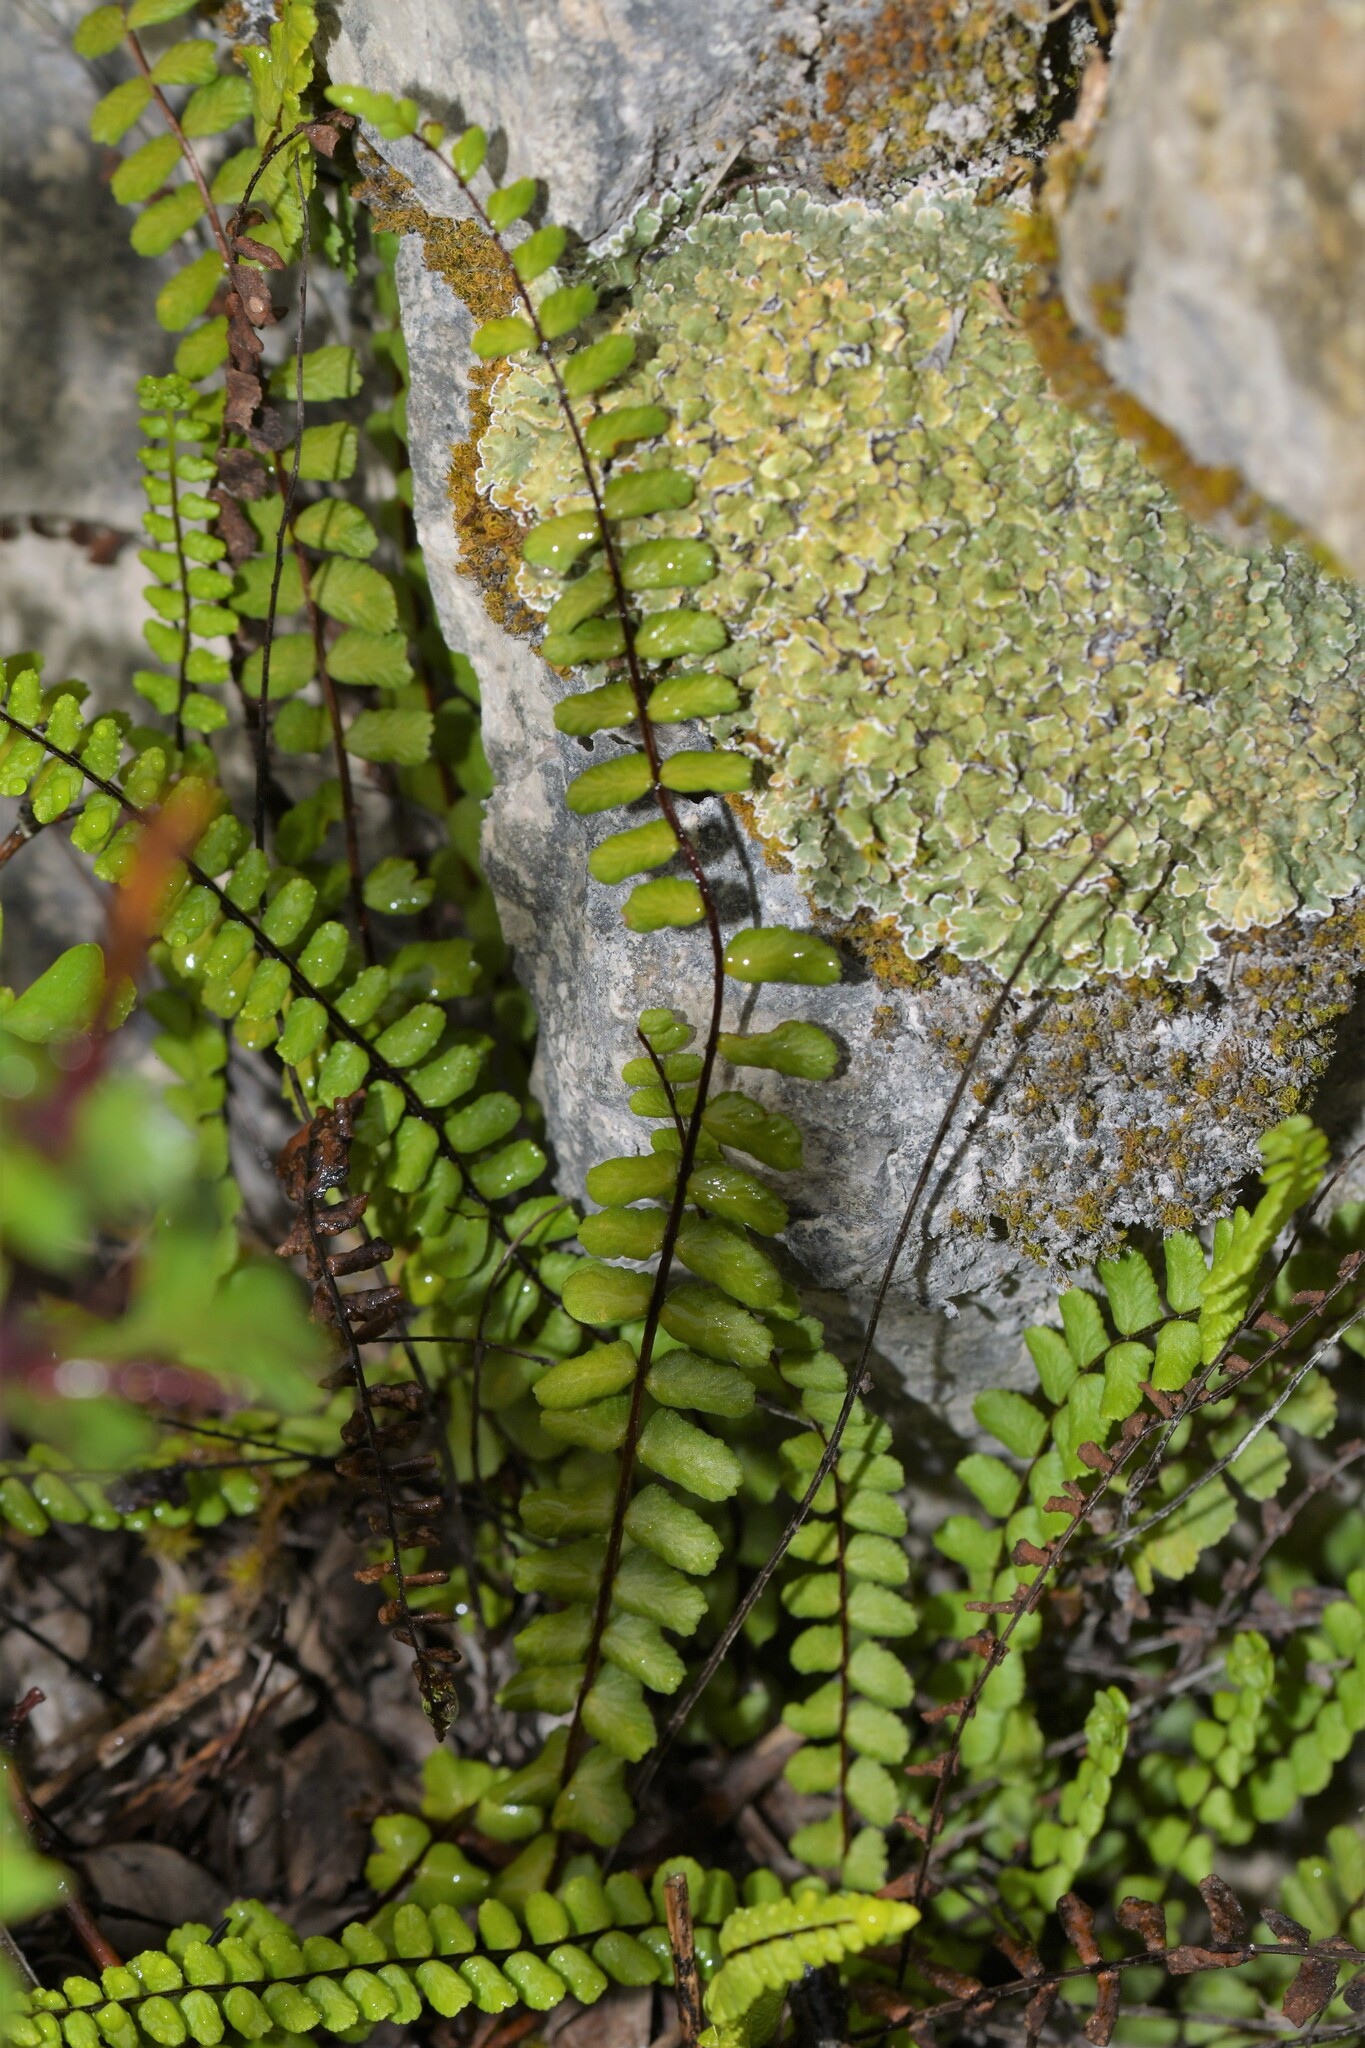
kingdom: Plantae
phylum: Tracheophyta
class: Polypodiopsida
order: Polypodiales
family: Aspleniaceae
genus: Asplenium
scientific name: Asplenium trichomanes
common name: Maidenhair spleenwort
